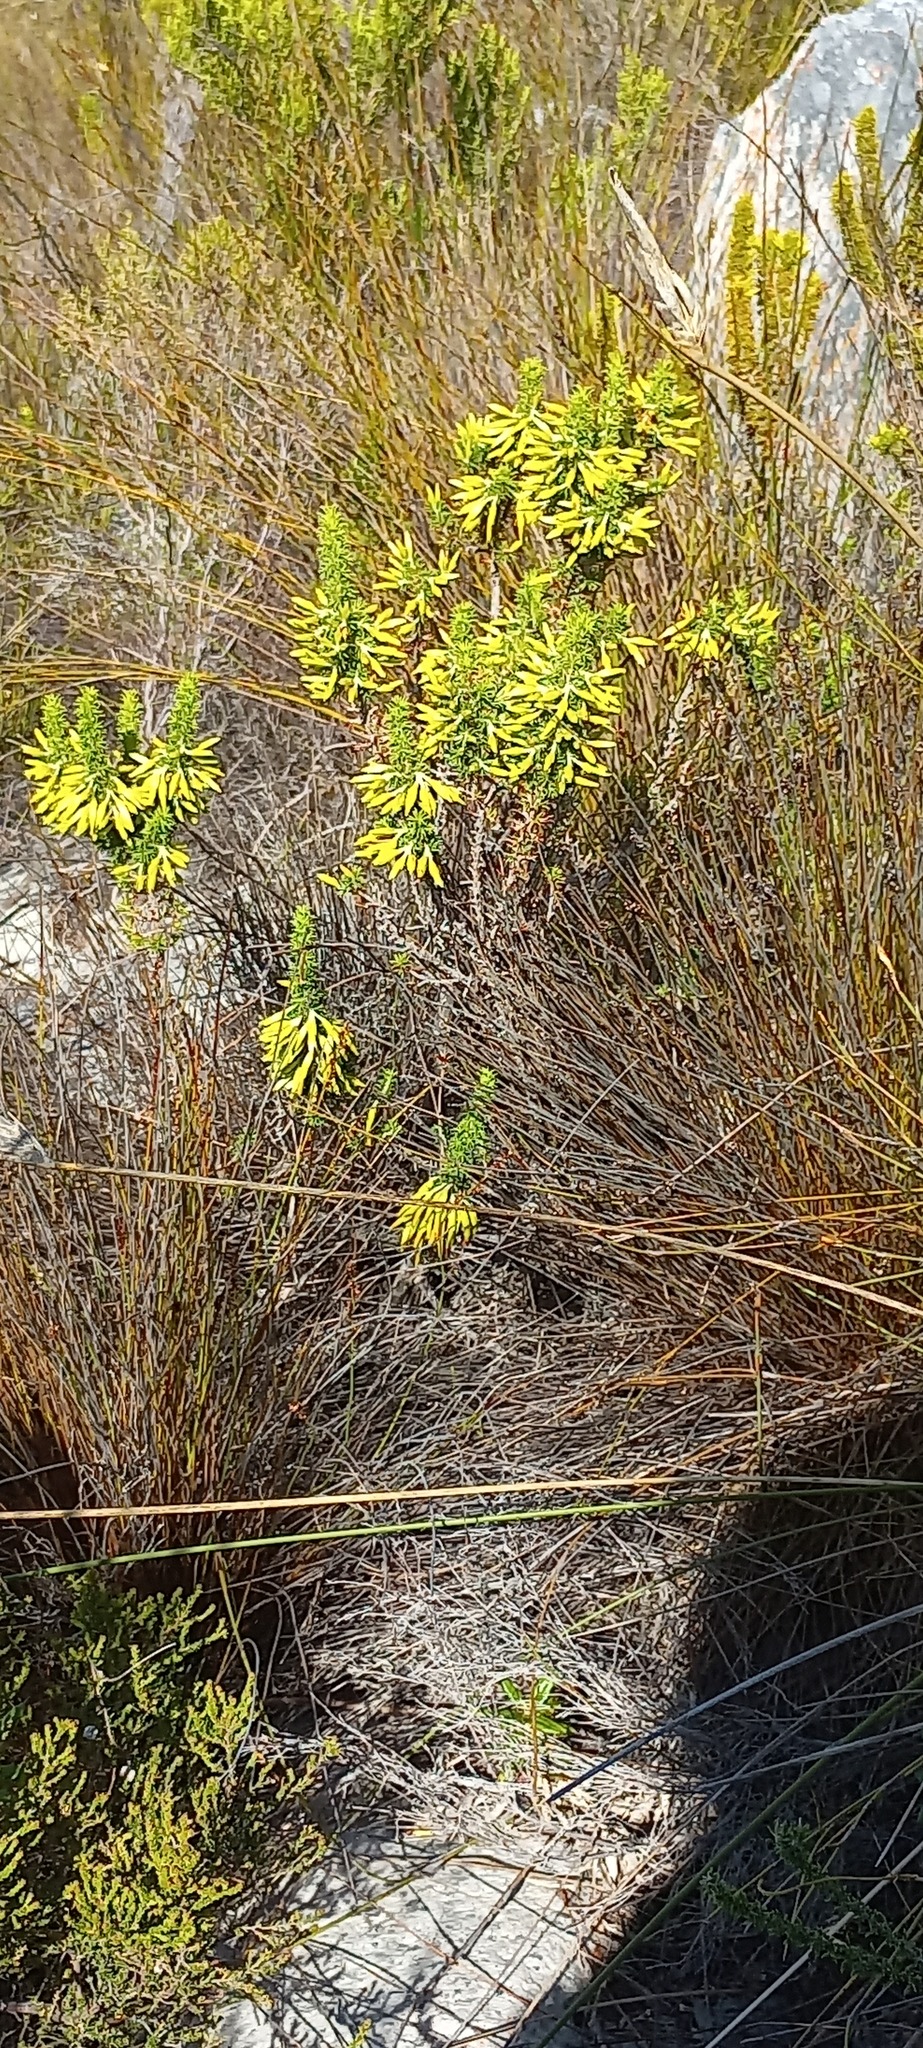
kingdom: Plantae
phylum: Tracheophyta
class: Magnoliopsida
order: Ericales
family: Ericaceae
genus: Erica
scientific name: Erica coccinea
